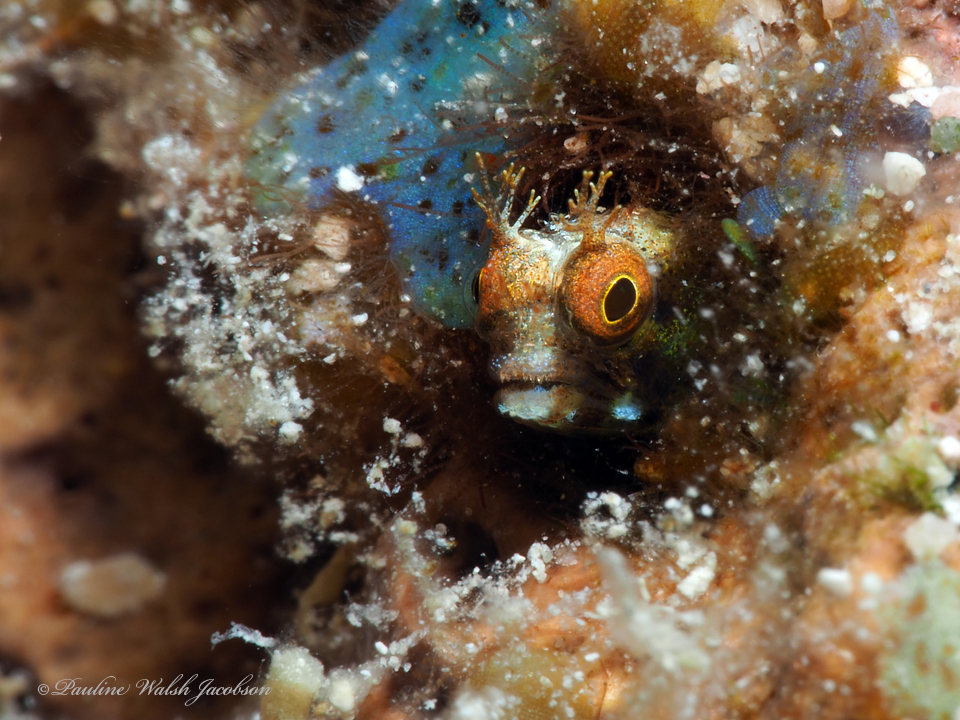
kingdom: Animalia
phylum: Chordata
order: Perciformes
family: Chaenopsidae
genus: Acanthemblemaria
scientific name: Acanthemblemaria aspera
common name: Roughhead blenny
